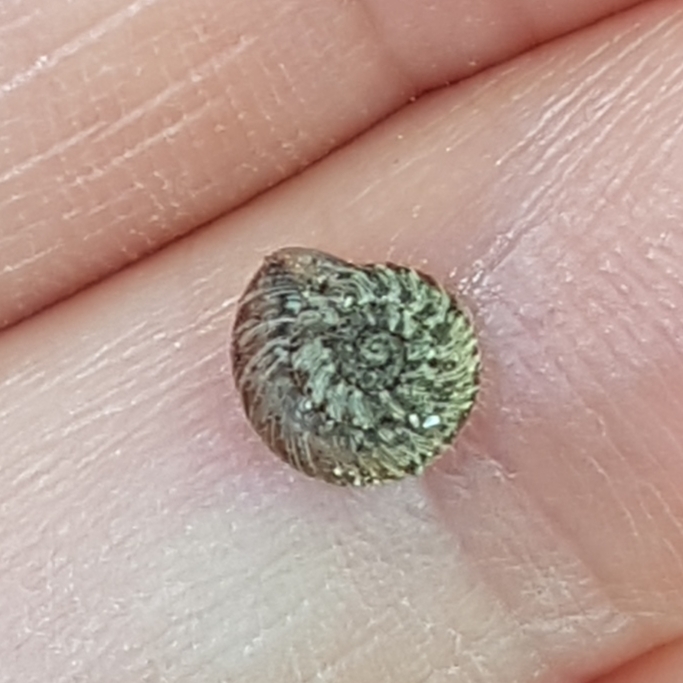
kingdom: Animalia
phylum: Mollusca
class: Gastropoda
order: Stylommatophora
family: Geomitridae
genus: Xerotricha
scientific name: Xerotricha conspurcata
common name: Snail
